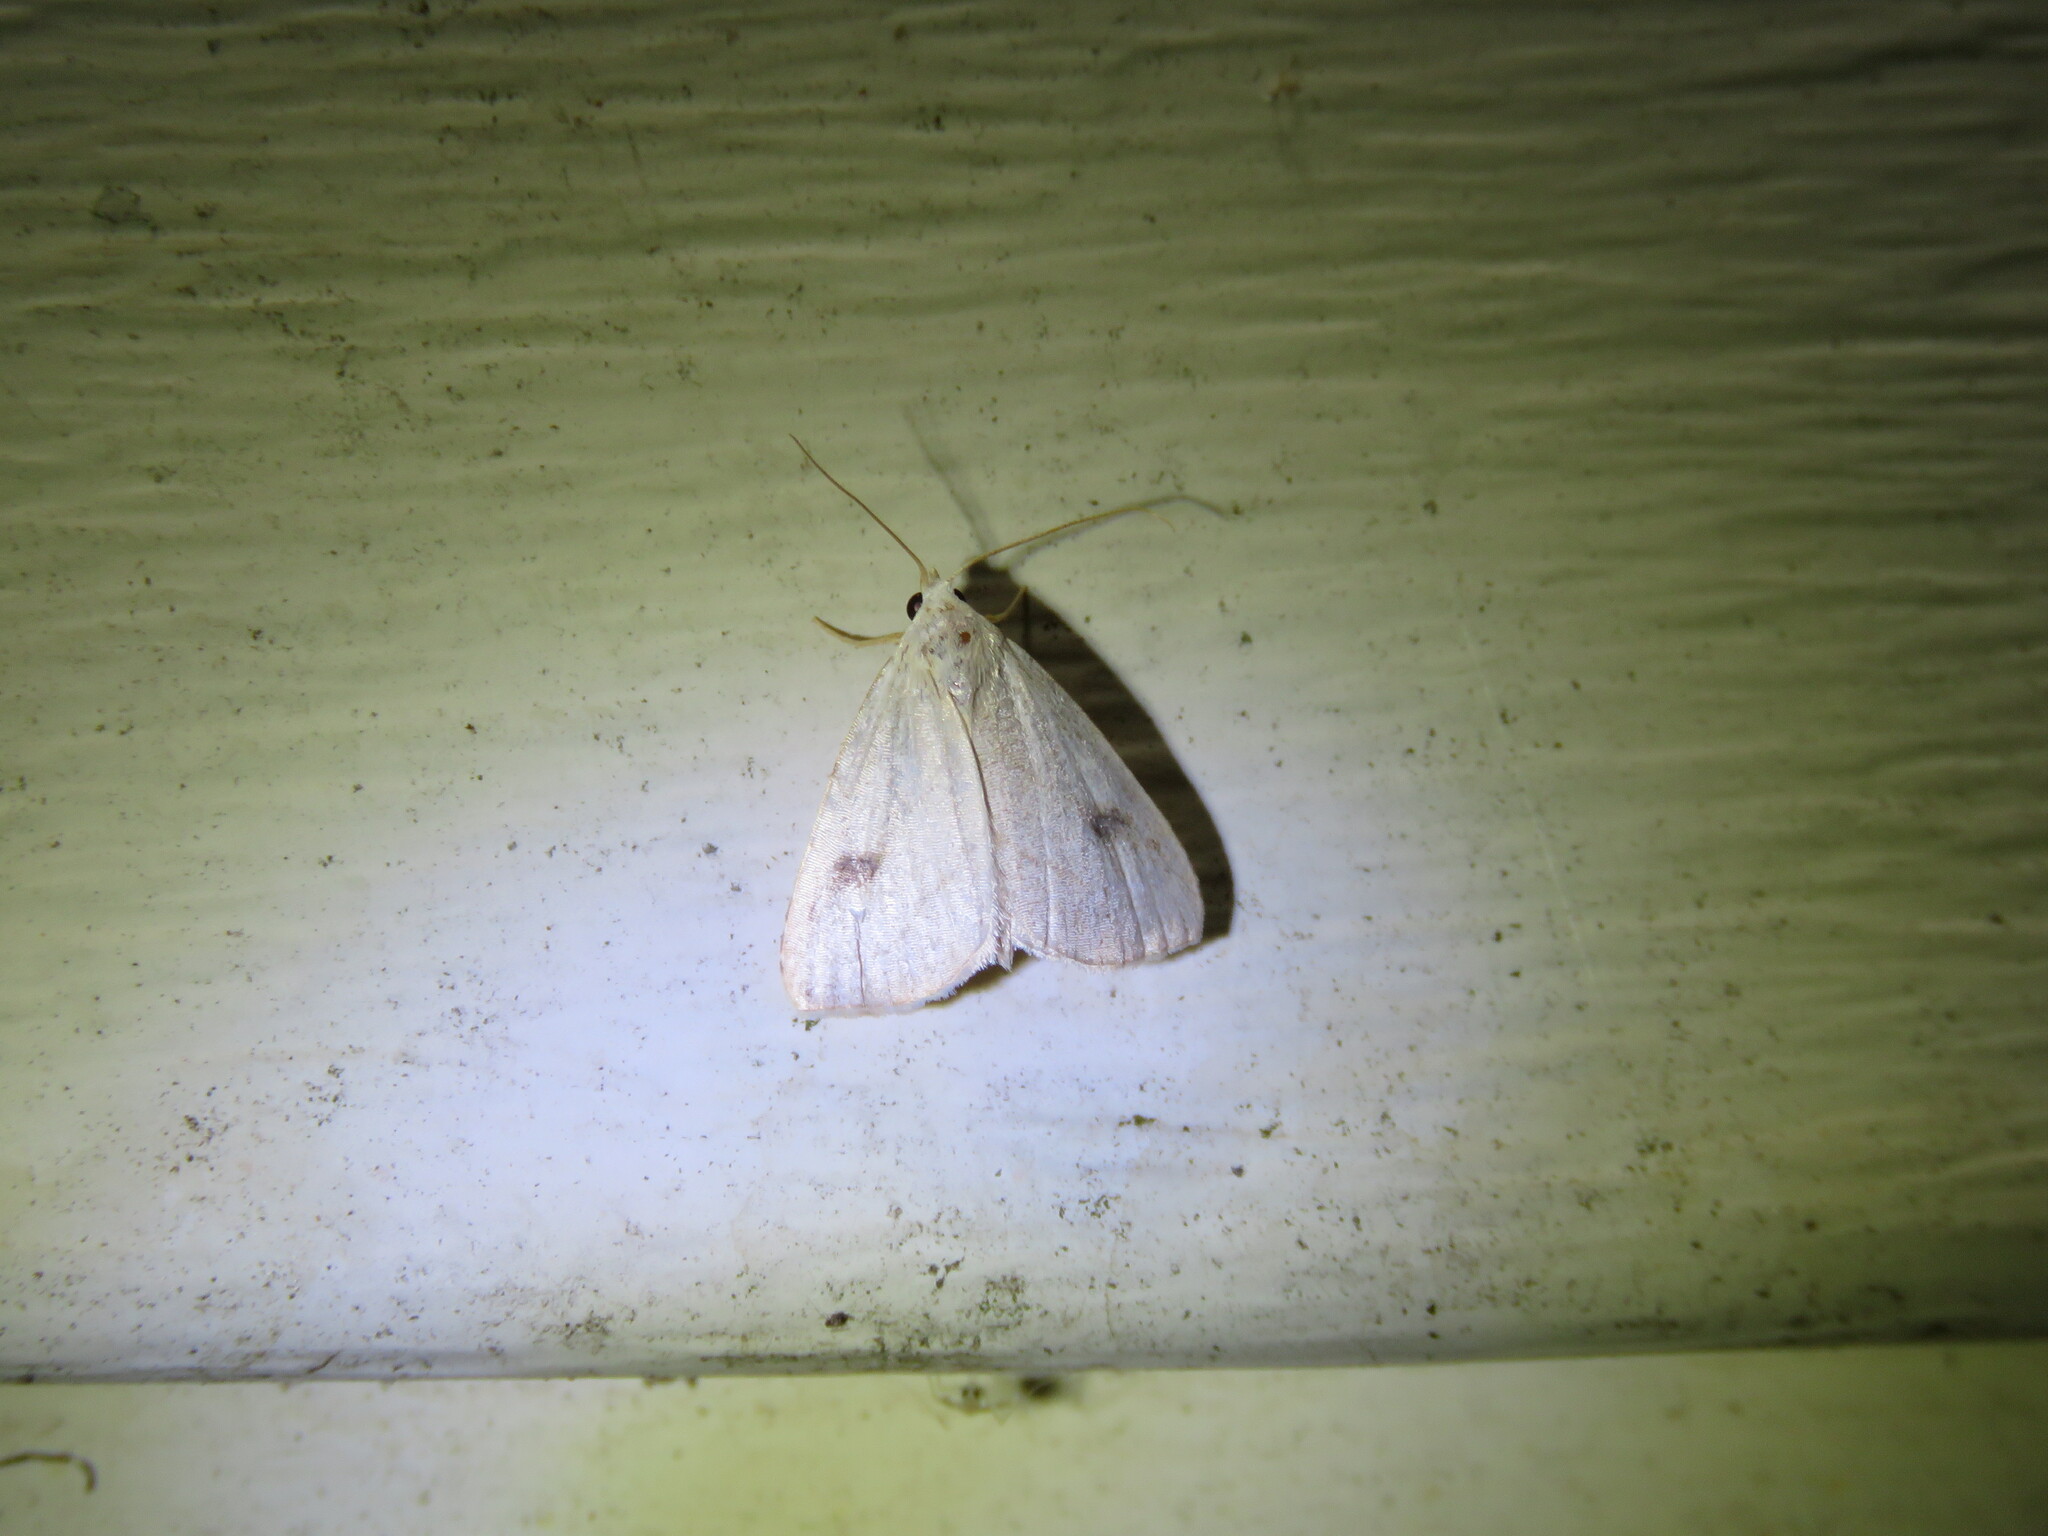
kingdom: Animalia
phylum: Arthropoda
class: Insecta
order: Lepidoptera
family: Erebidae
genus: Rivula
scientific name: Rivula propinqualis
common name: Spotted grass moth
